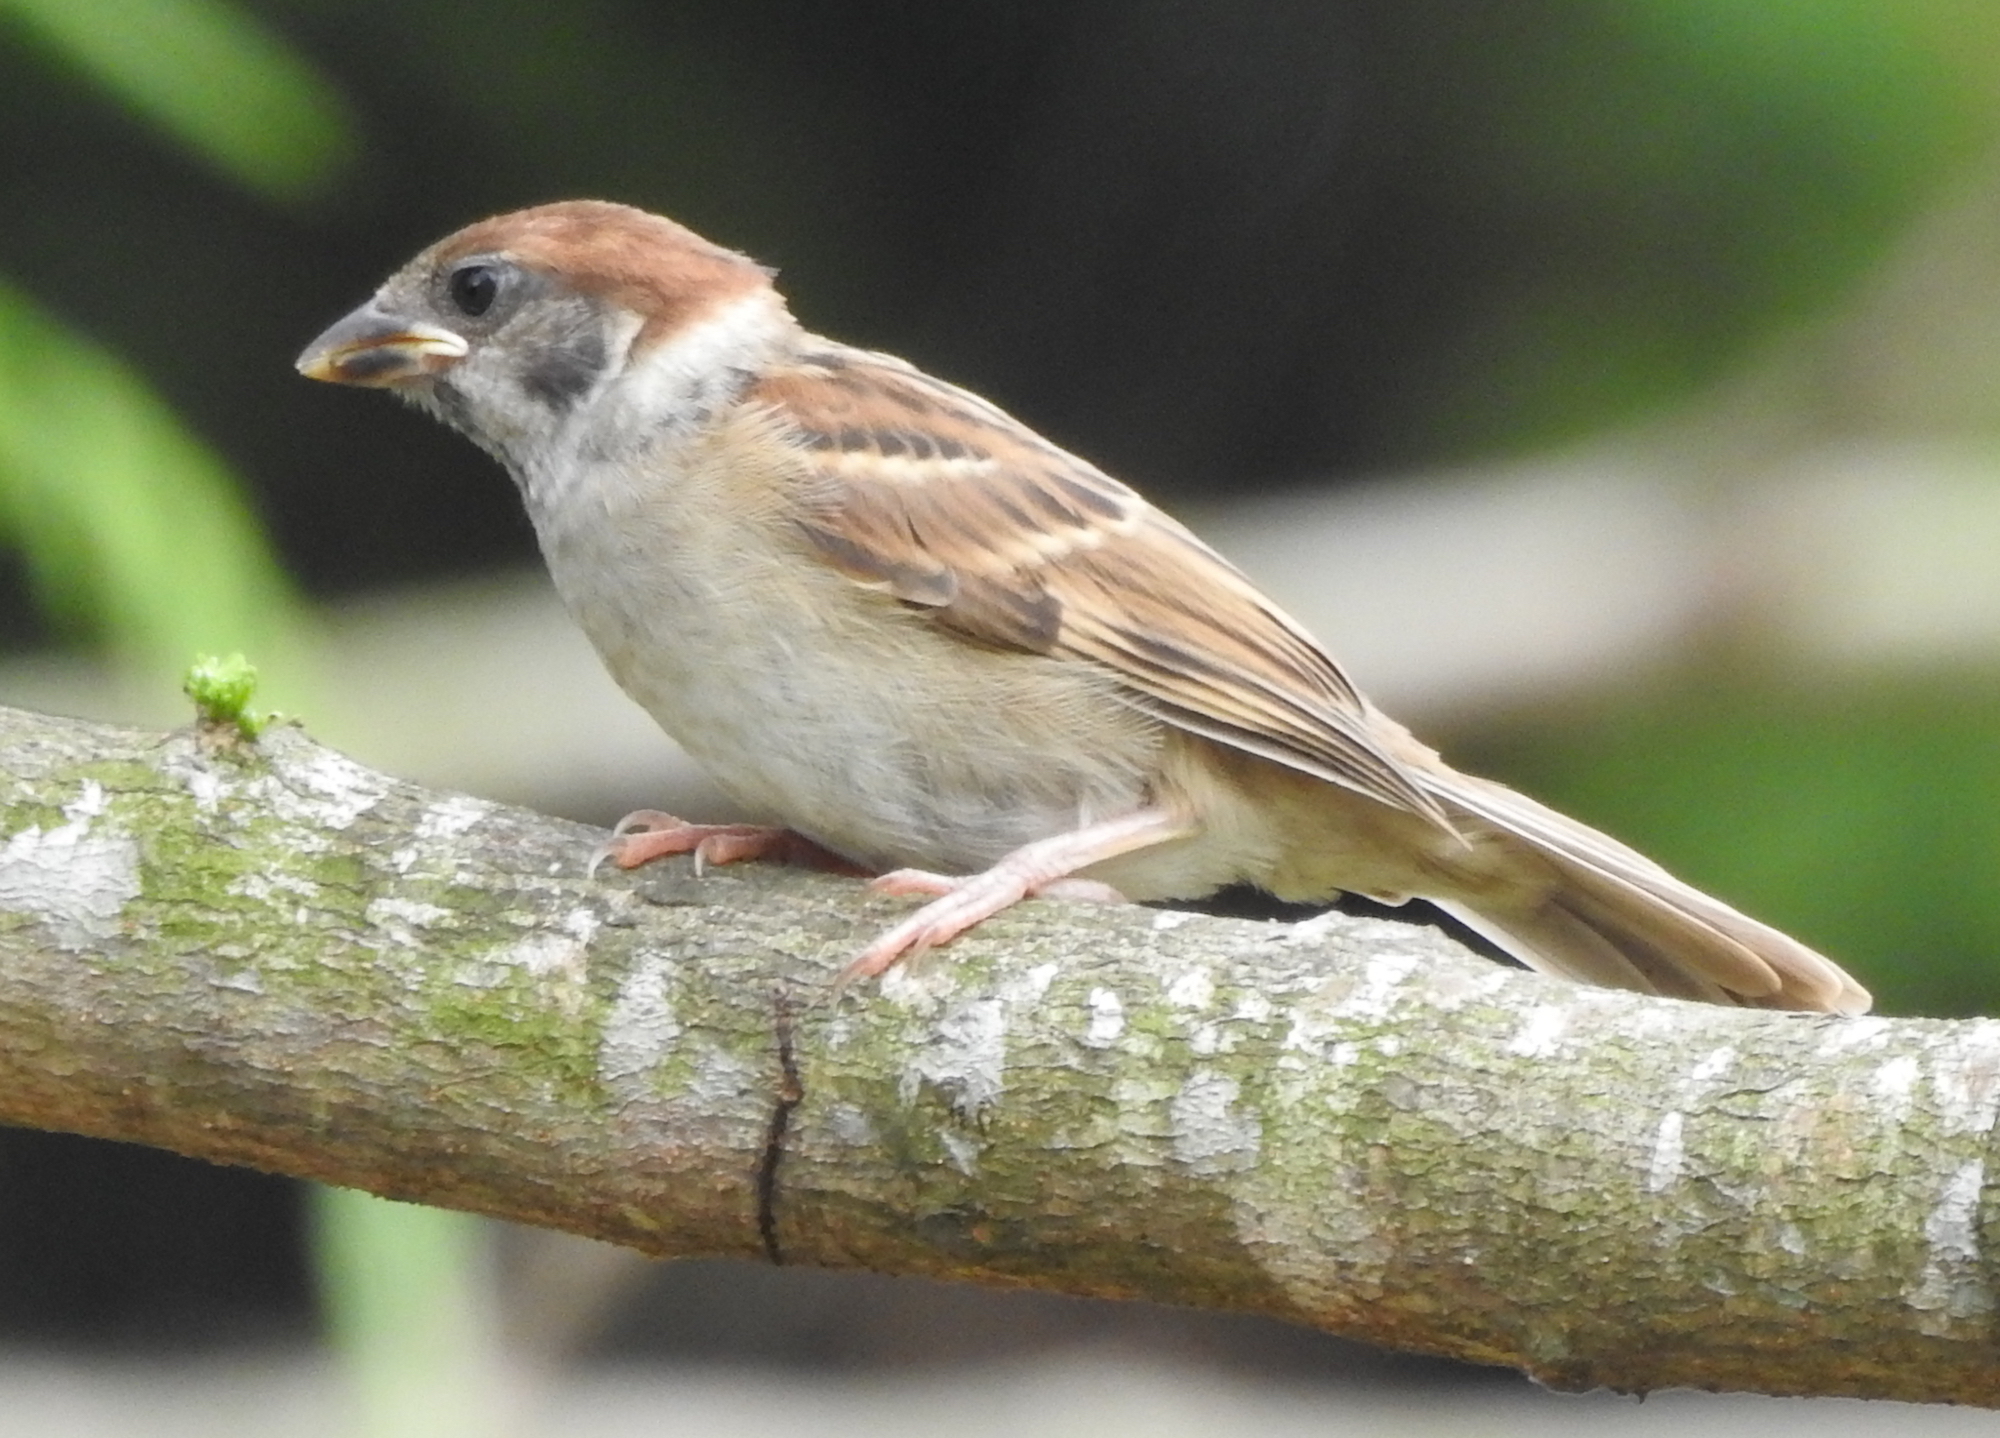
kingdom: Animalia
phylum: Chordata
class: Aves
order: Passeriformes
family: Passeridae
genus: Passer
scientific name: Passer montanus
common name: Eurasian tree sparrow
